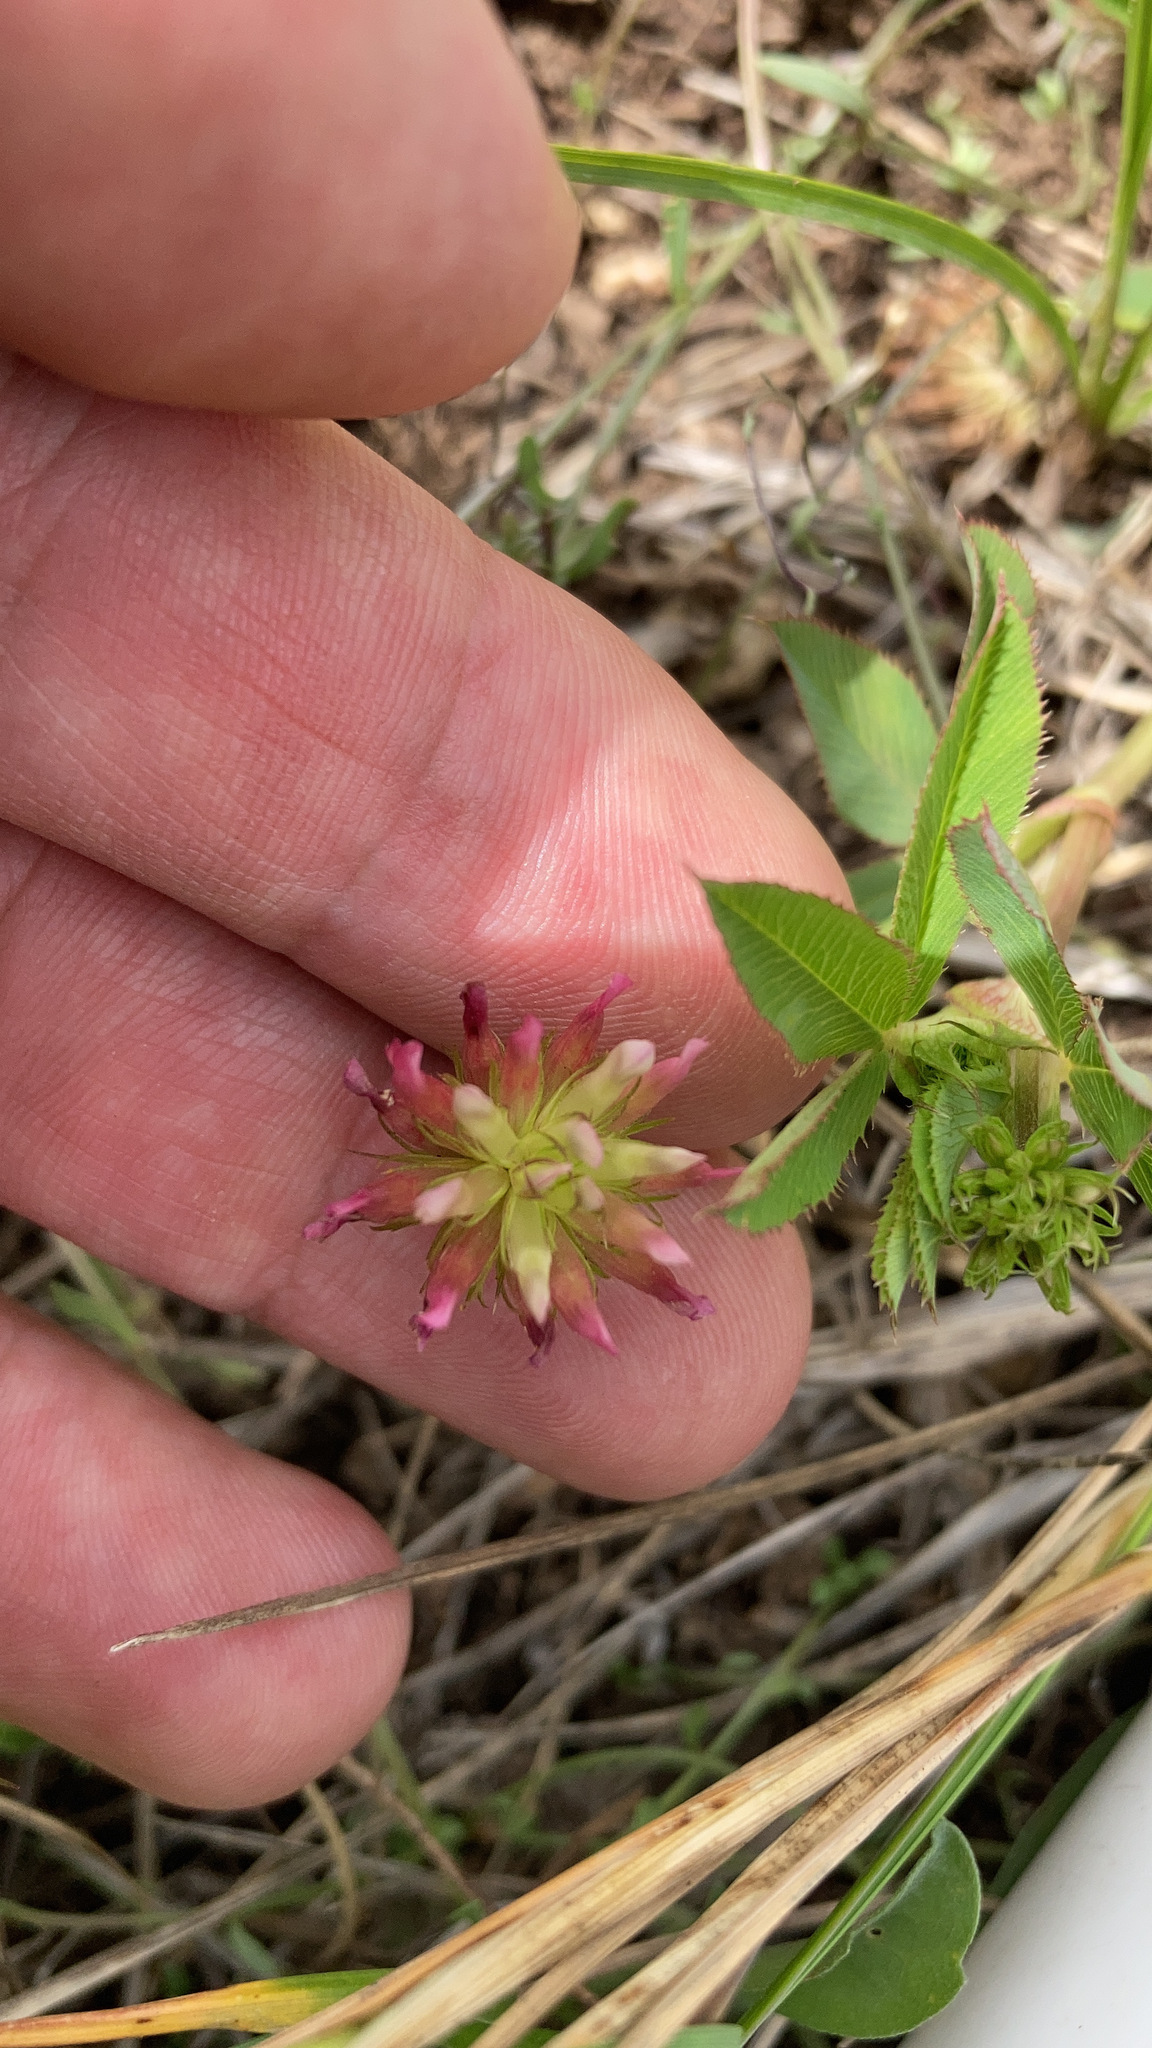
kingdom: Plantae
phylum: Tracheophyta
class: Magnoliopsida
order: Fabales
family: Fabaceae
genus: Trifolium
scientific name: Trifolium wormskioldii
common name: Springbank clover
